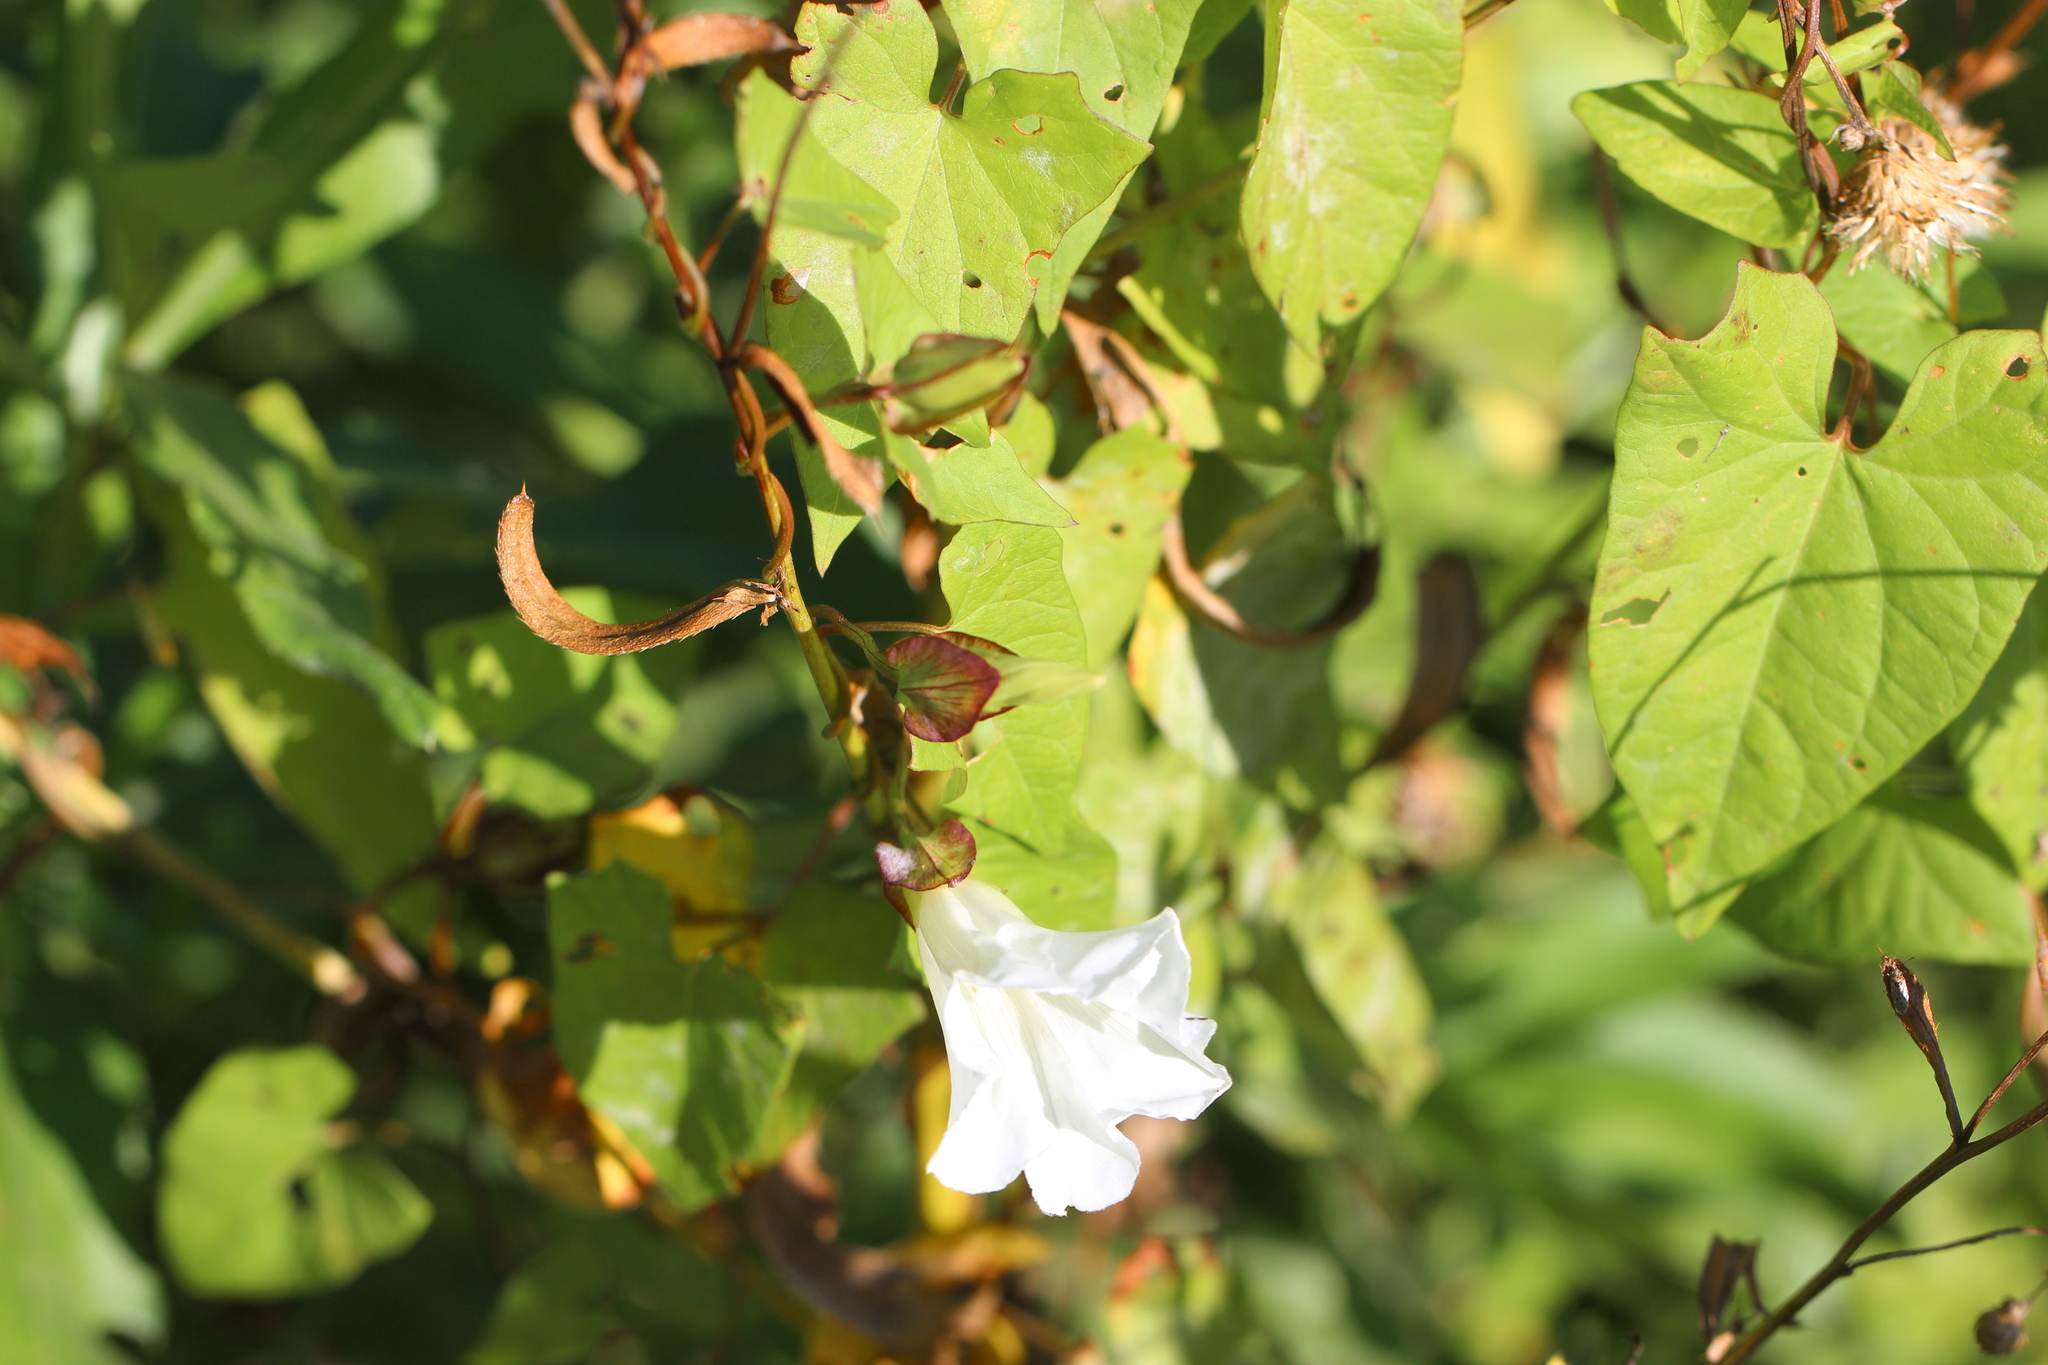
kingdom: Plantae
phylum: Tracheophyta
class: Magnoliopsida
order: Solanales
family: Convolvulaceae
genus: Calystegia
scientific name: Calystegia sepium
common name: Hedge bindweed
